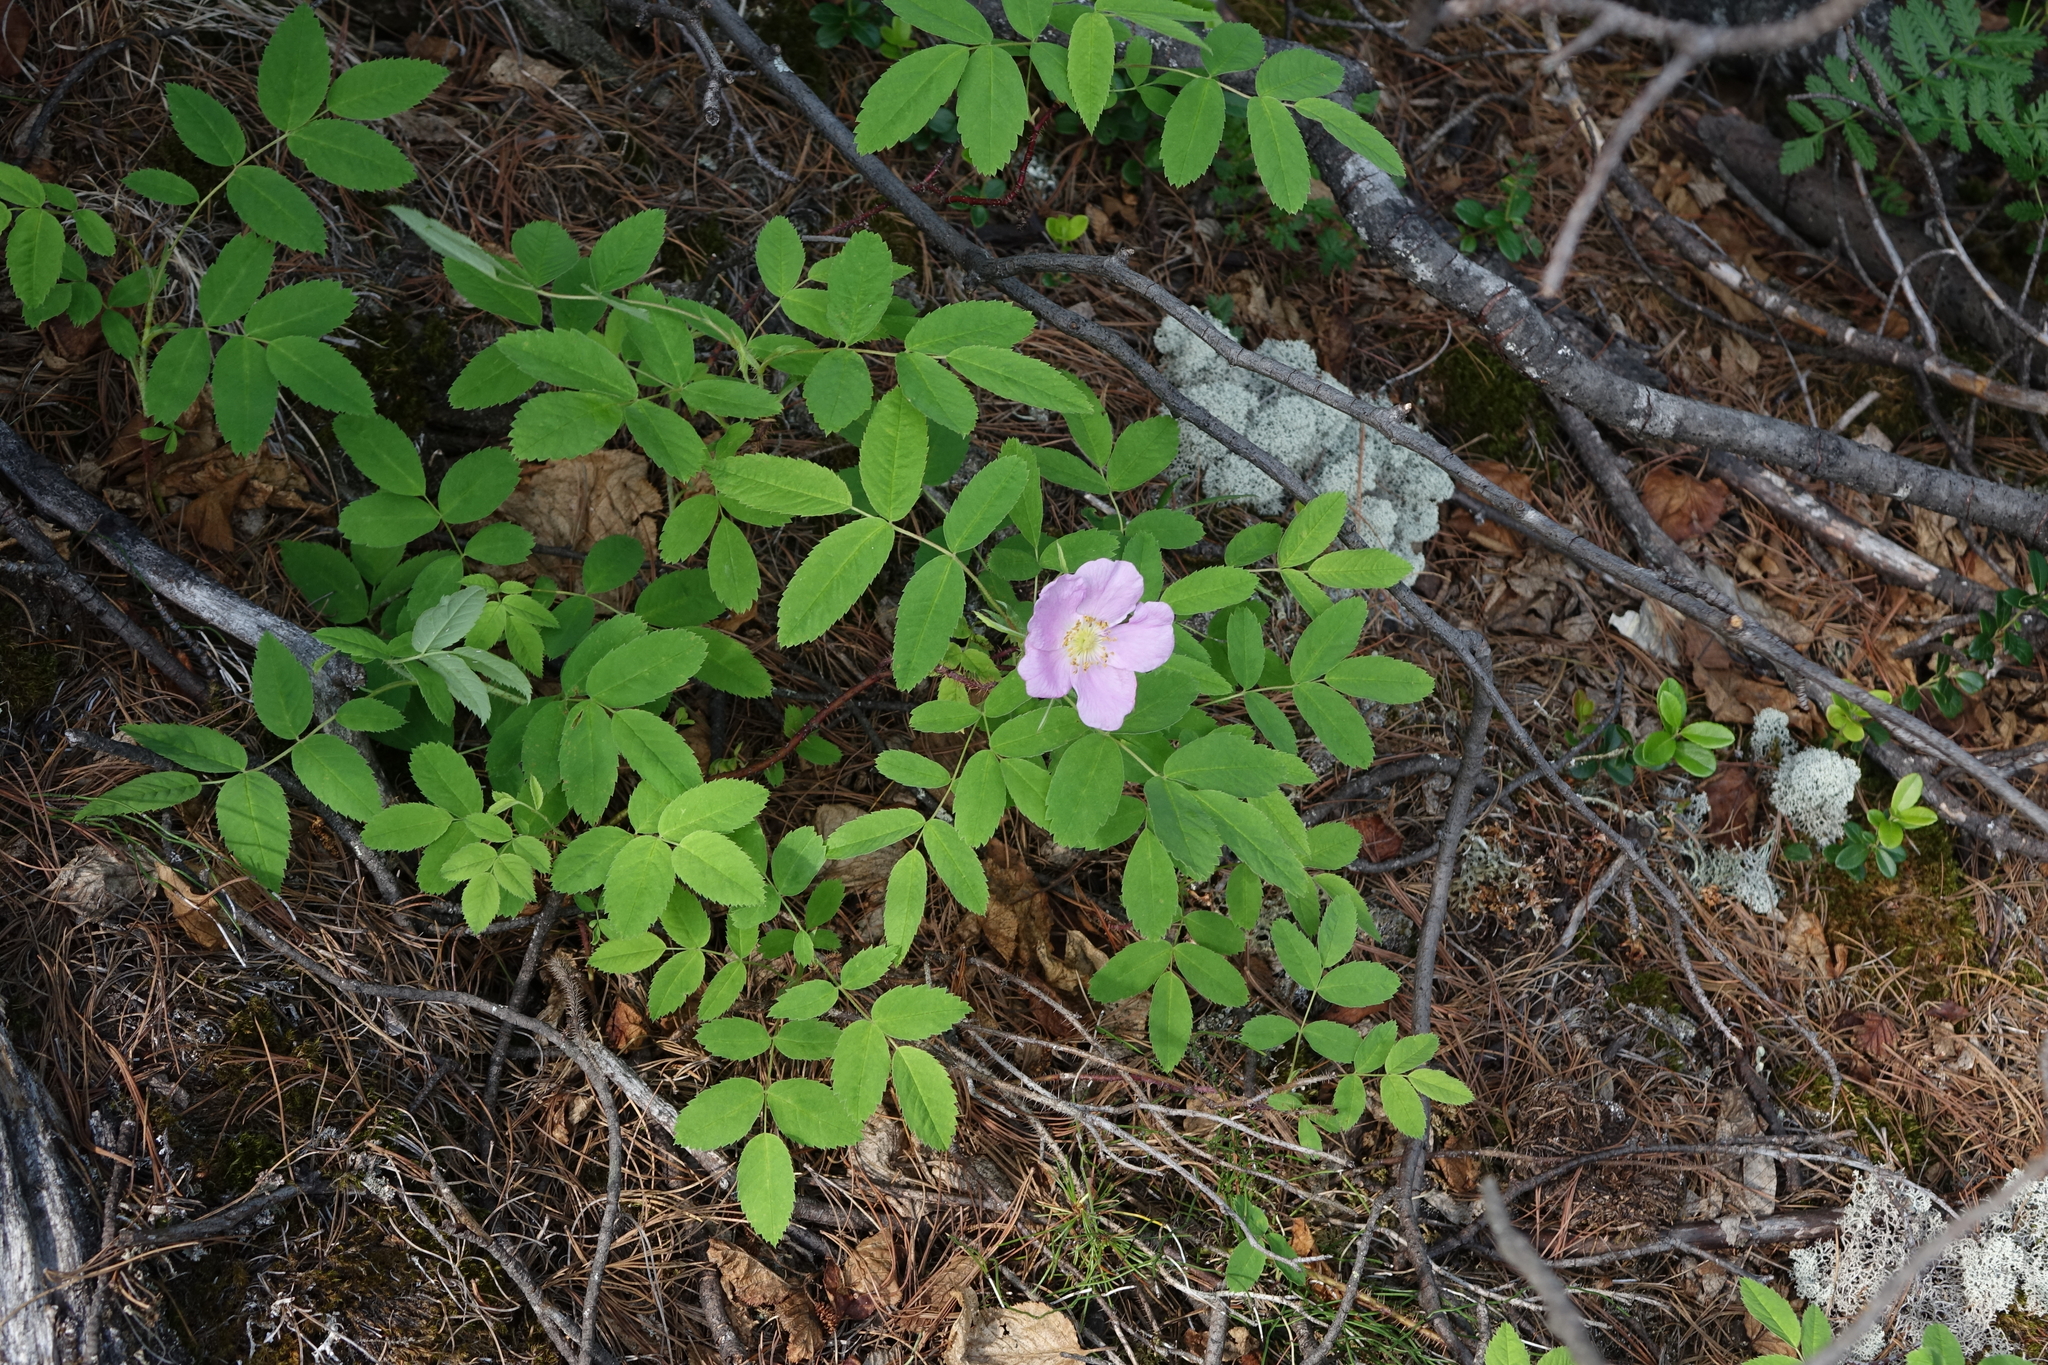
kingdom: Plantae
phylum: Tracheophyta
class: Magnoliopsida
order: Rosales
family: Rosaceae
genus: Rosa
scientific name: Rosa acicularis
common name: Prickly rose
